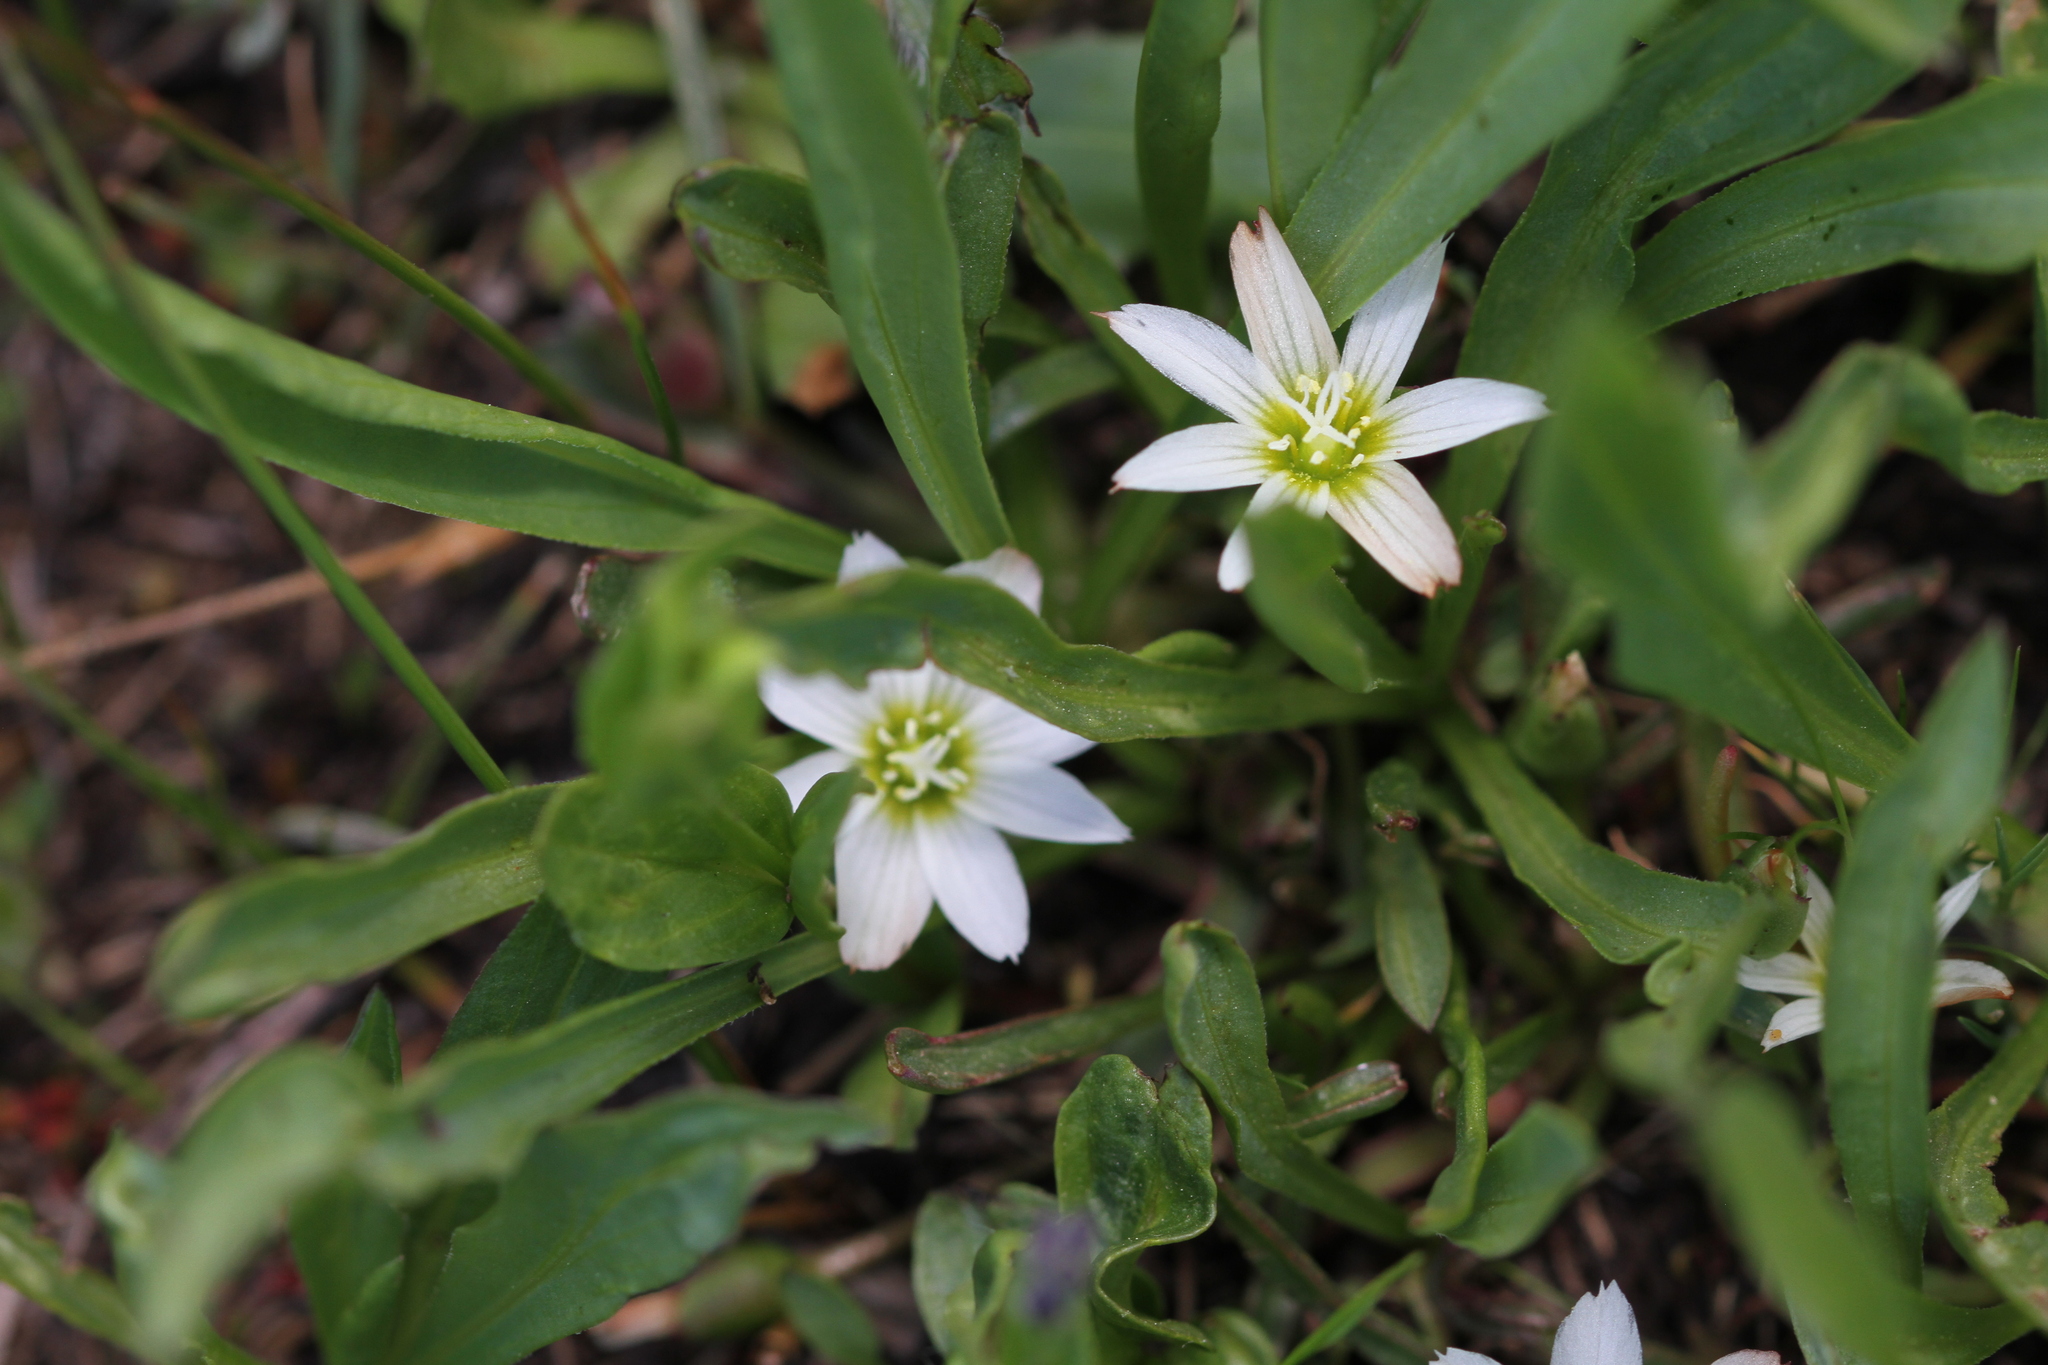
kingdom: Plantae
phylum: Tracheophyta
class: Magnoliopsida
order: Caryophyllales
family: Montiaceae
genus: Lewisia
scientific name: Lewisia nevadensis
